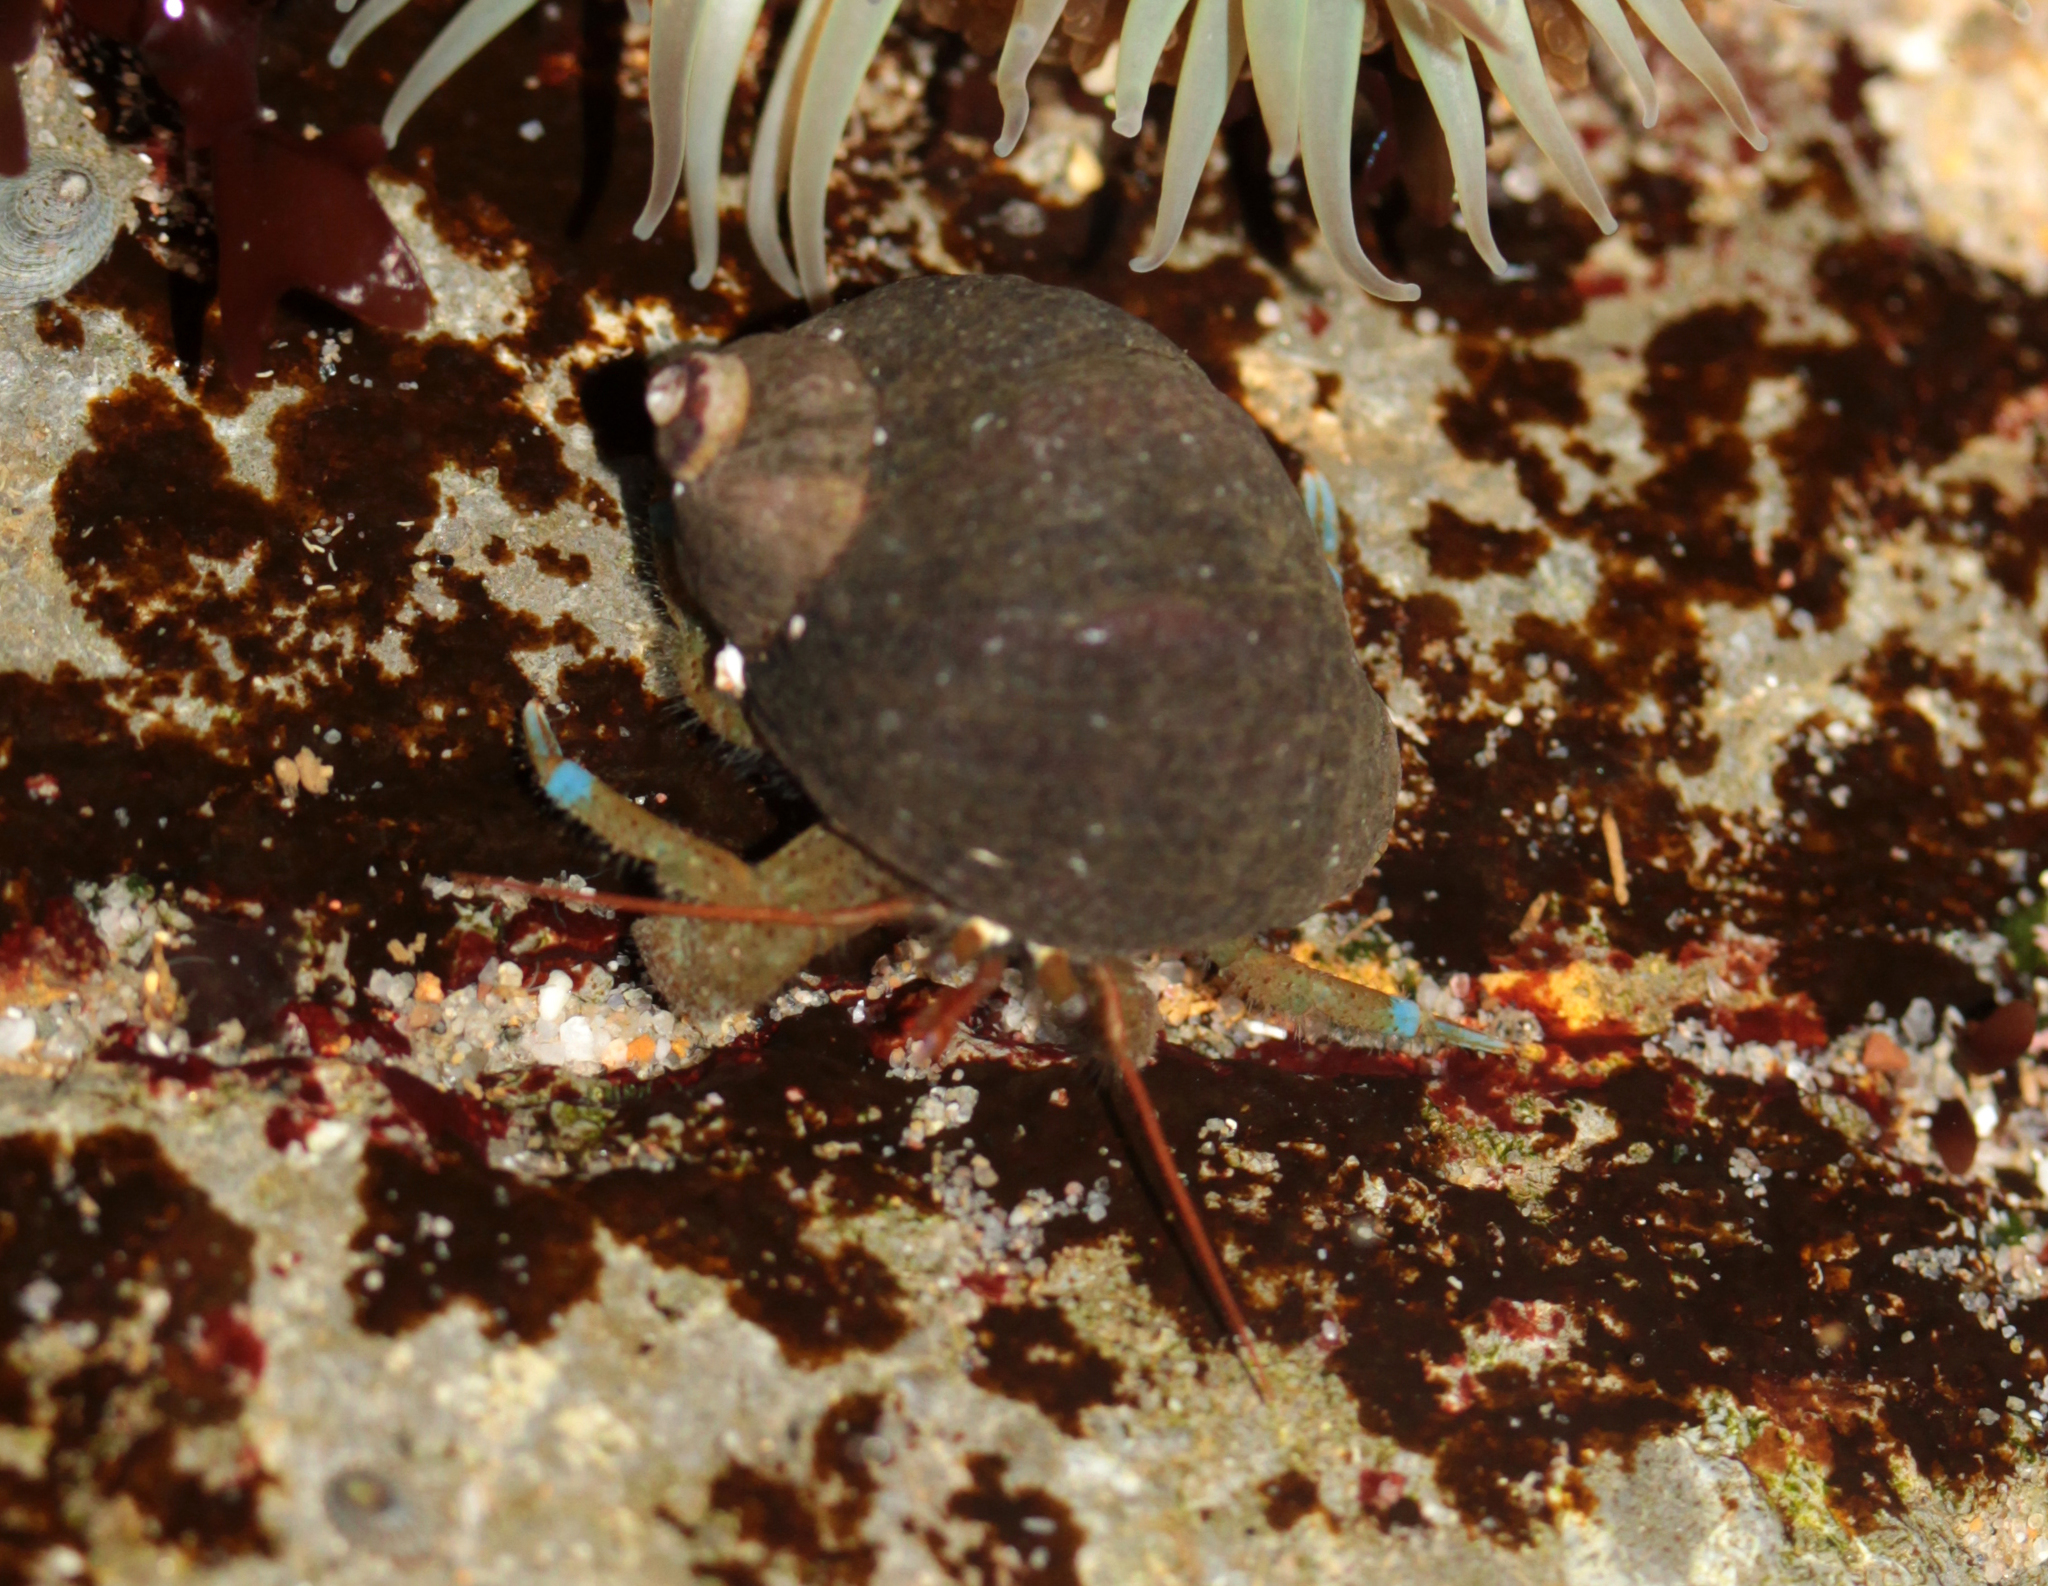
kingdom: Animalia
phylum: Arthropoda
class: Malacostraca
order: Decapoda
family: Paguridae
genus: Pagurus
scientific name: Pagurus samuelis
